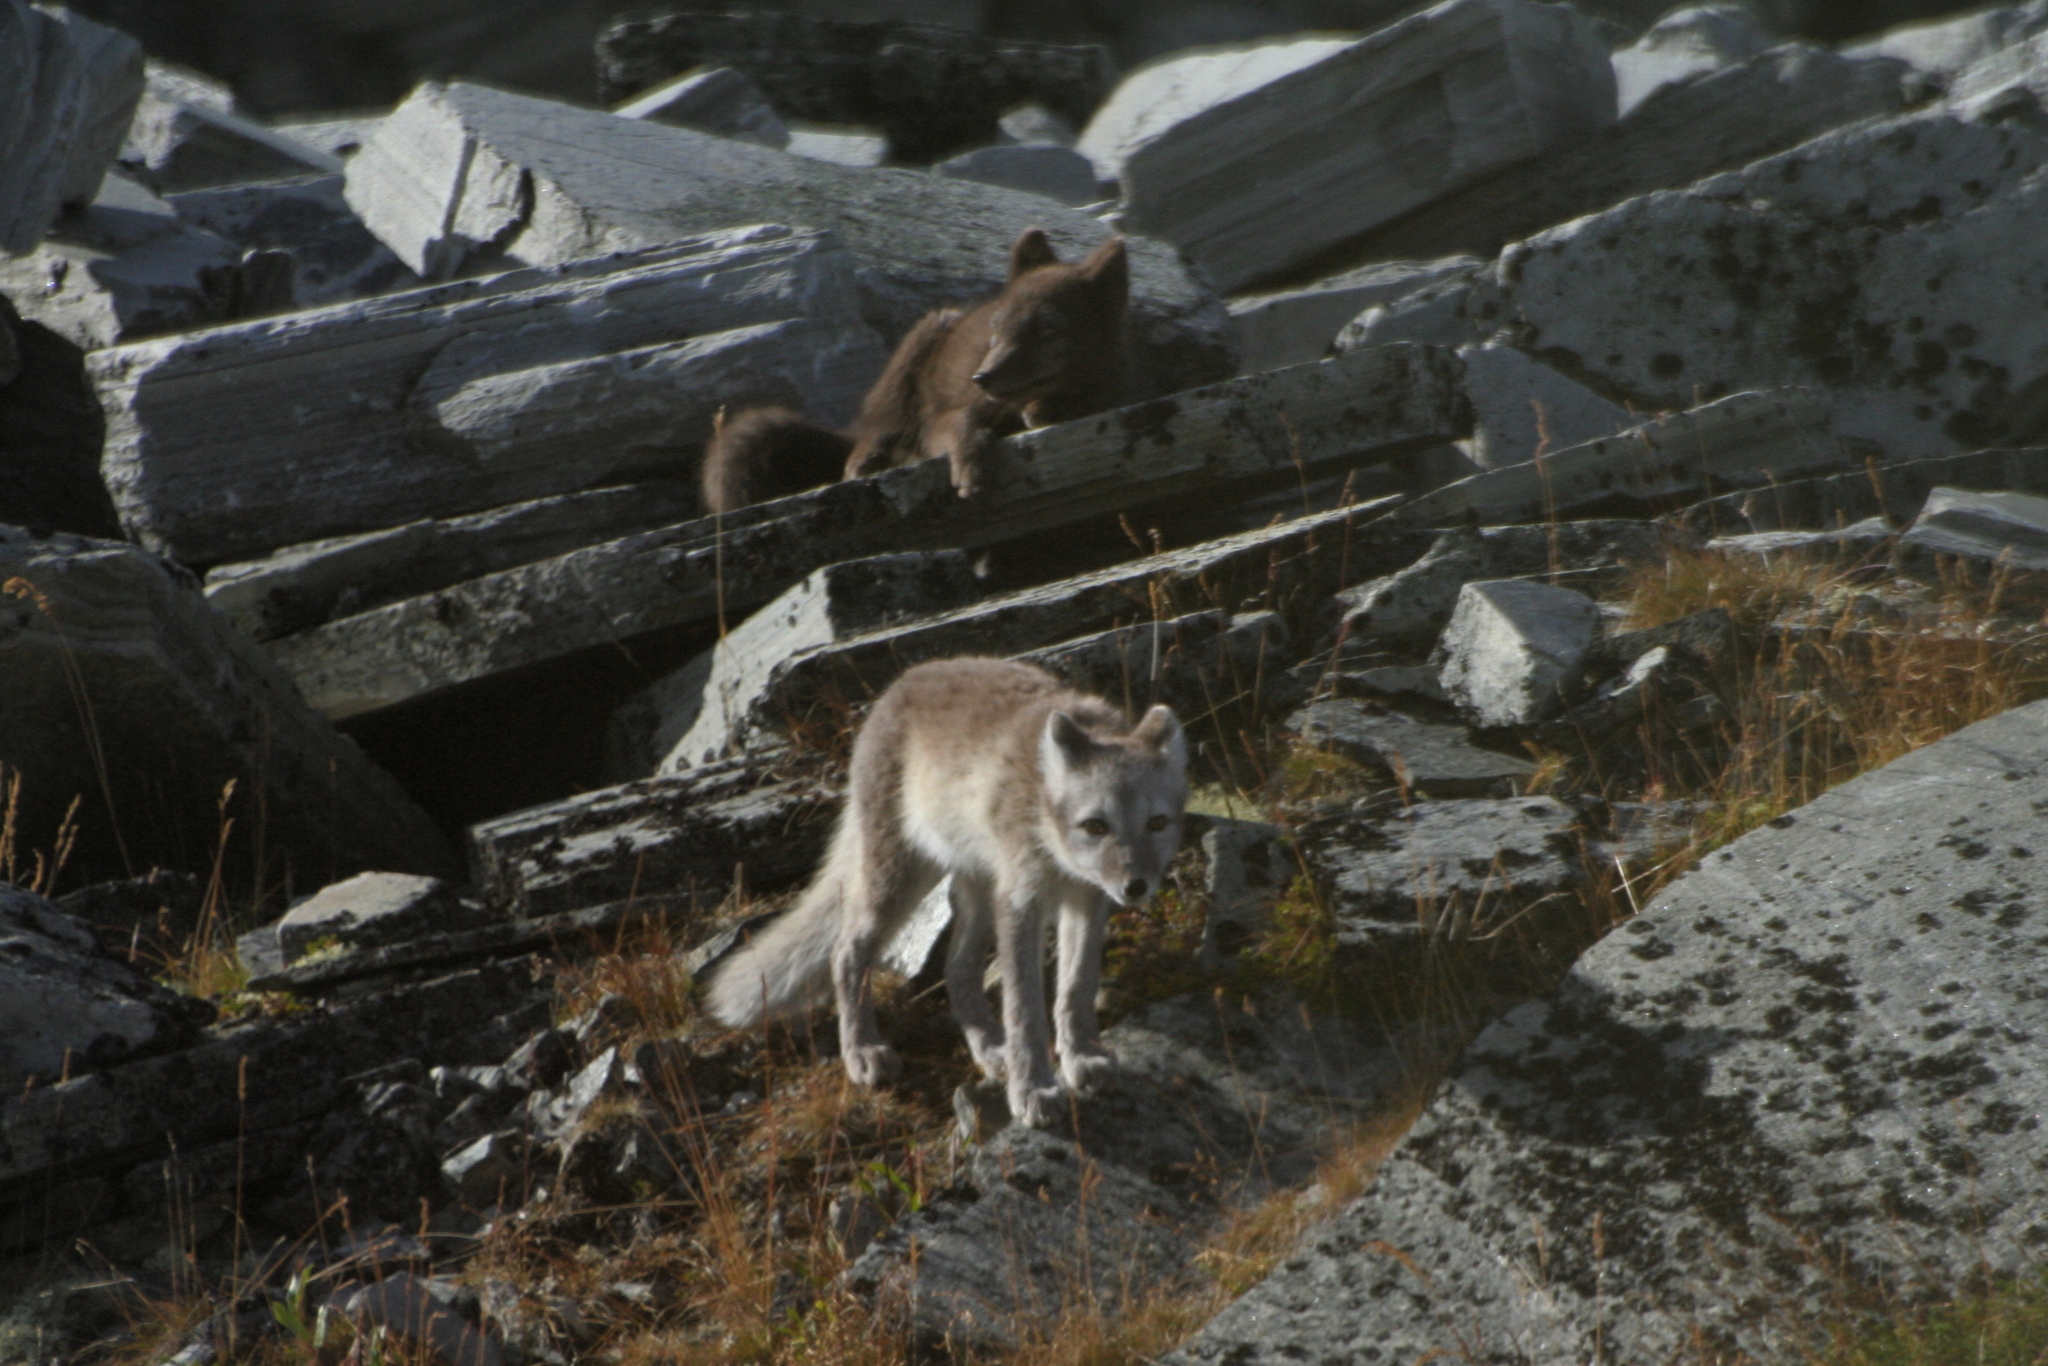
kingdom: Animalia
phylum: Chordata
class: Mammalia
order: Carnivora
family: Canidae
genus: Vulpes
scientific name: Vulpes lagopus
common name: Arctic fox
